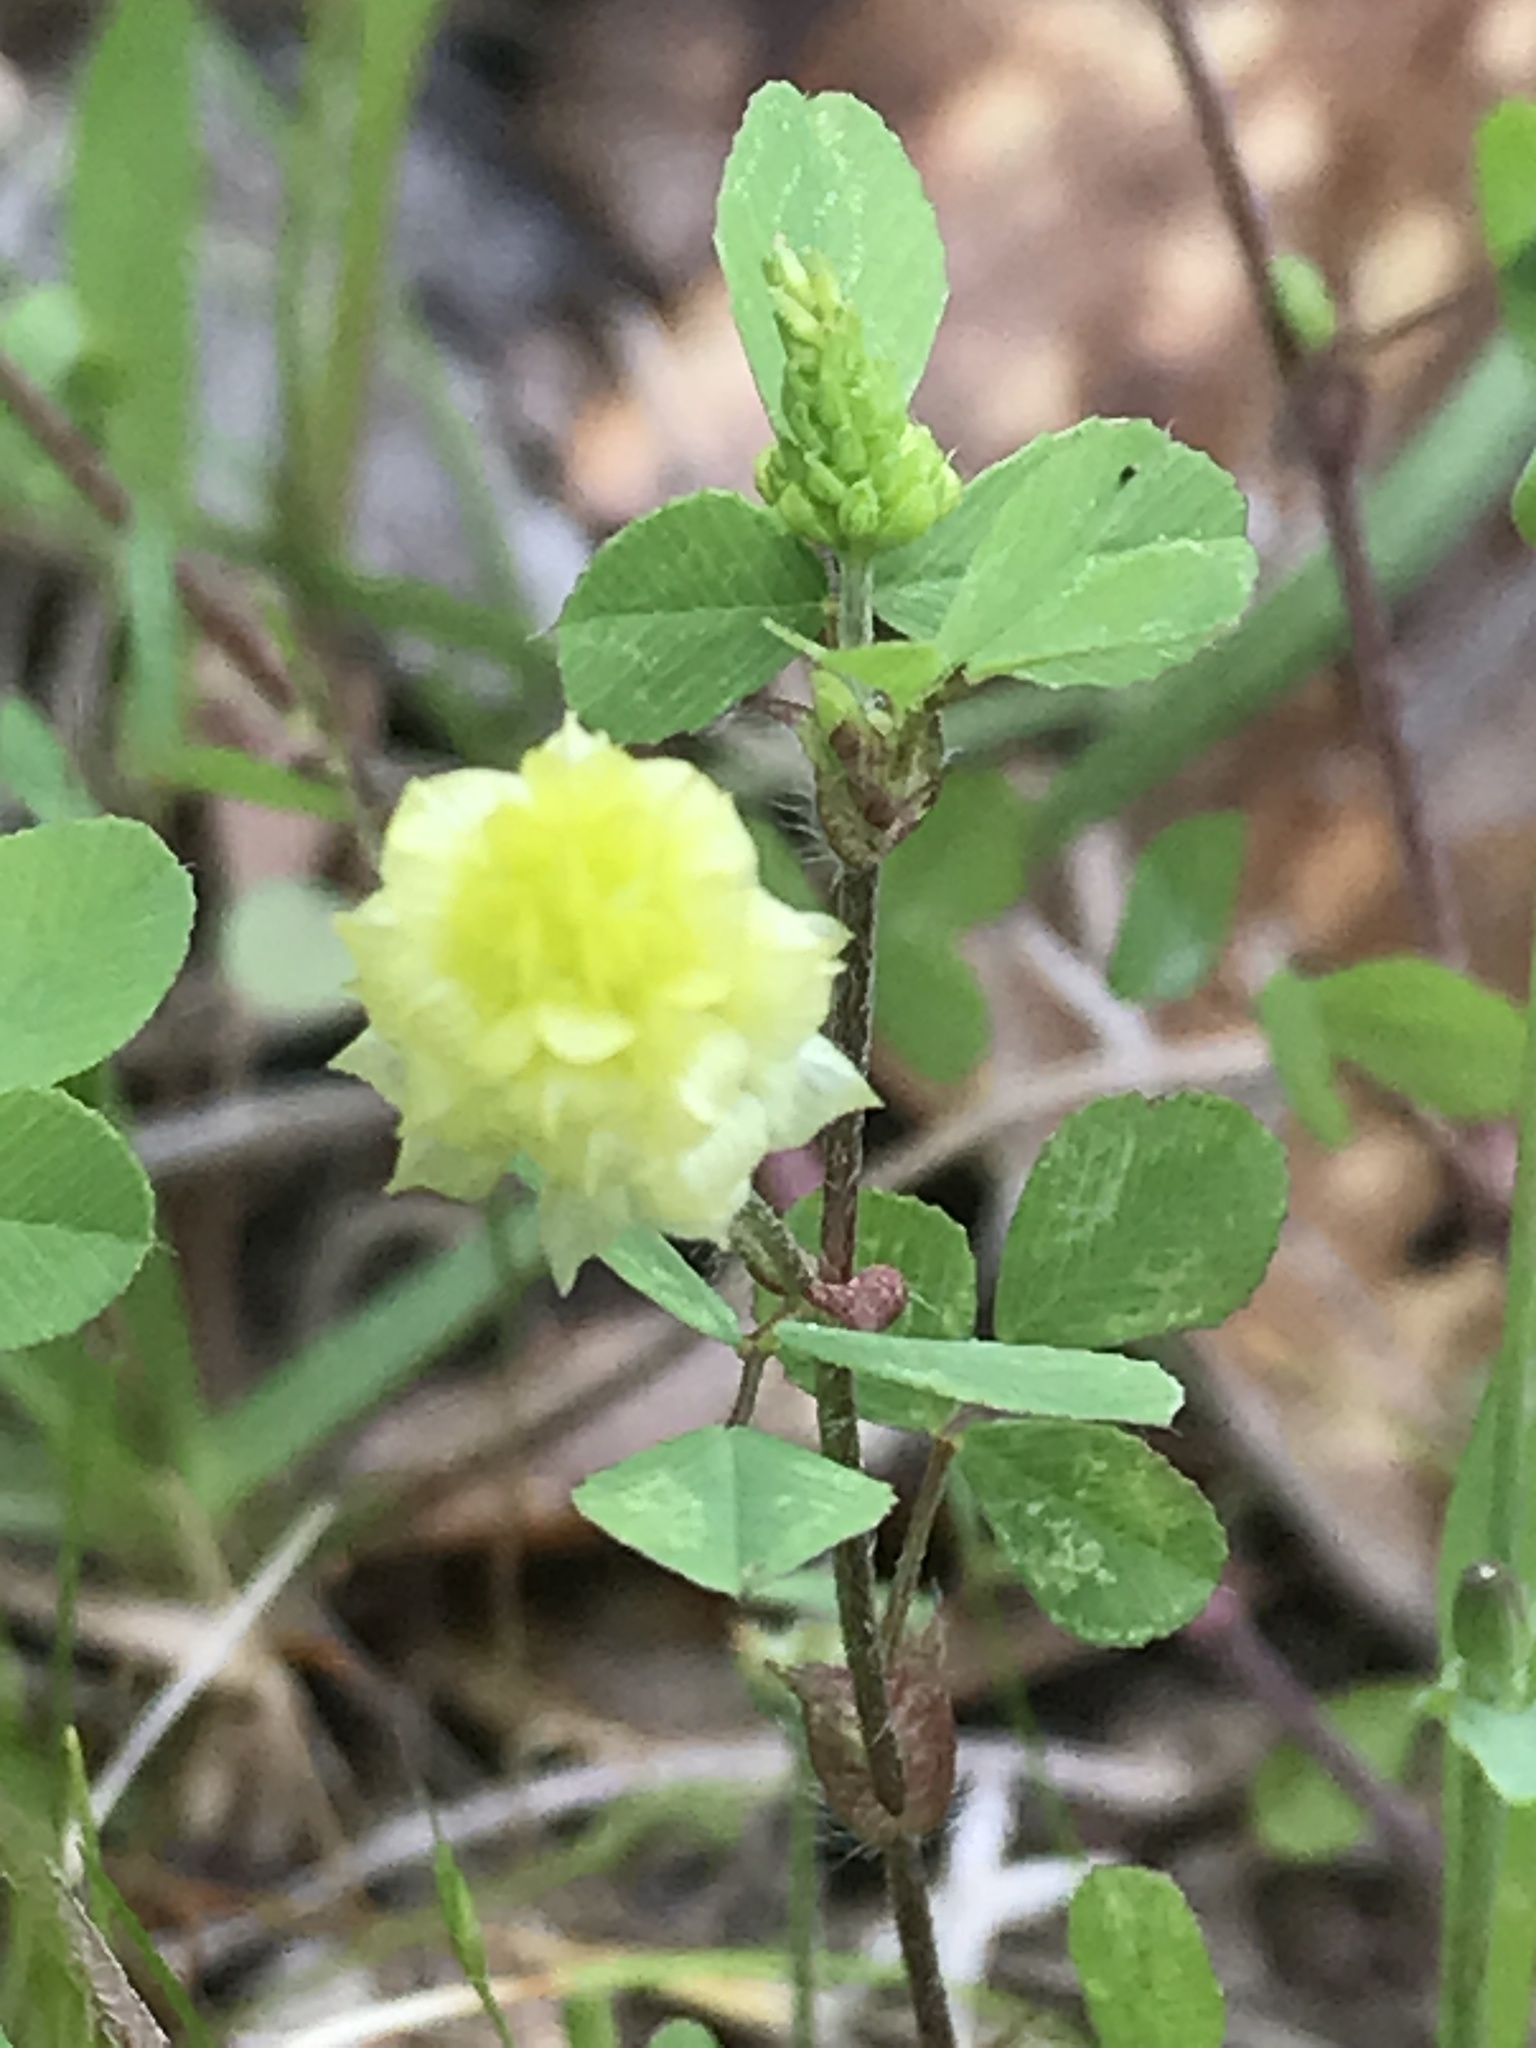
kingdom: Plantae
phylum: Tracheophyta
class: Magnoliopsida
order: Fabales
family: Fabaceae
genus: Trifolium
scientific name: Trifolium campestre
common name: Field clover
